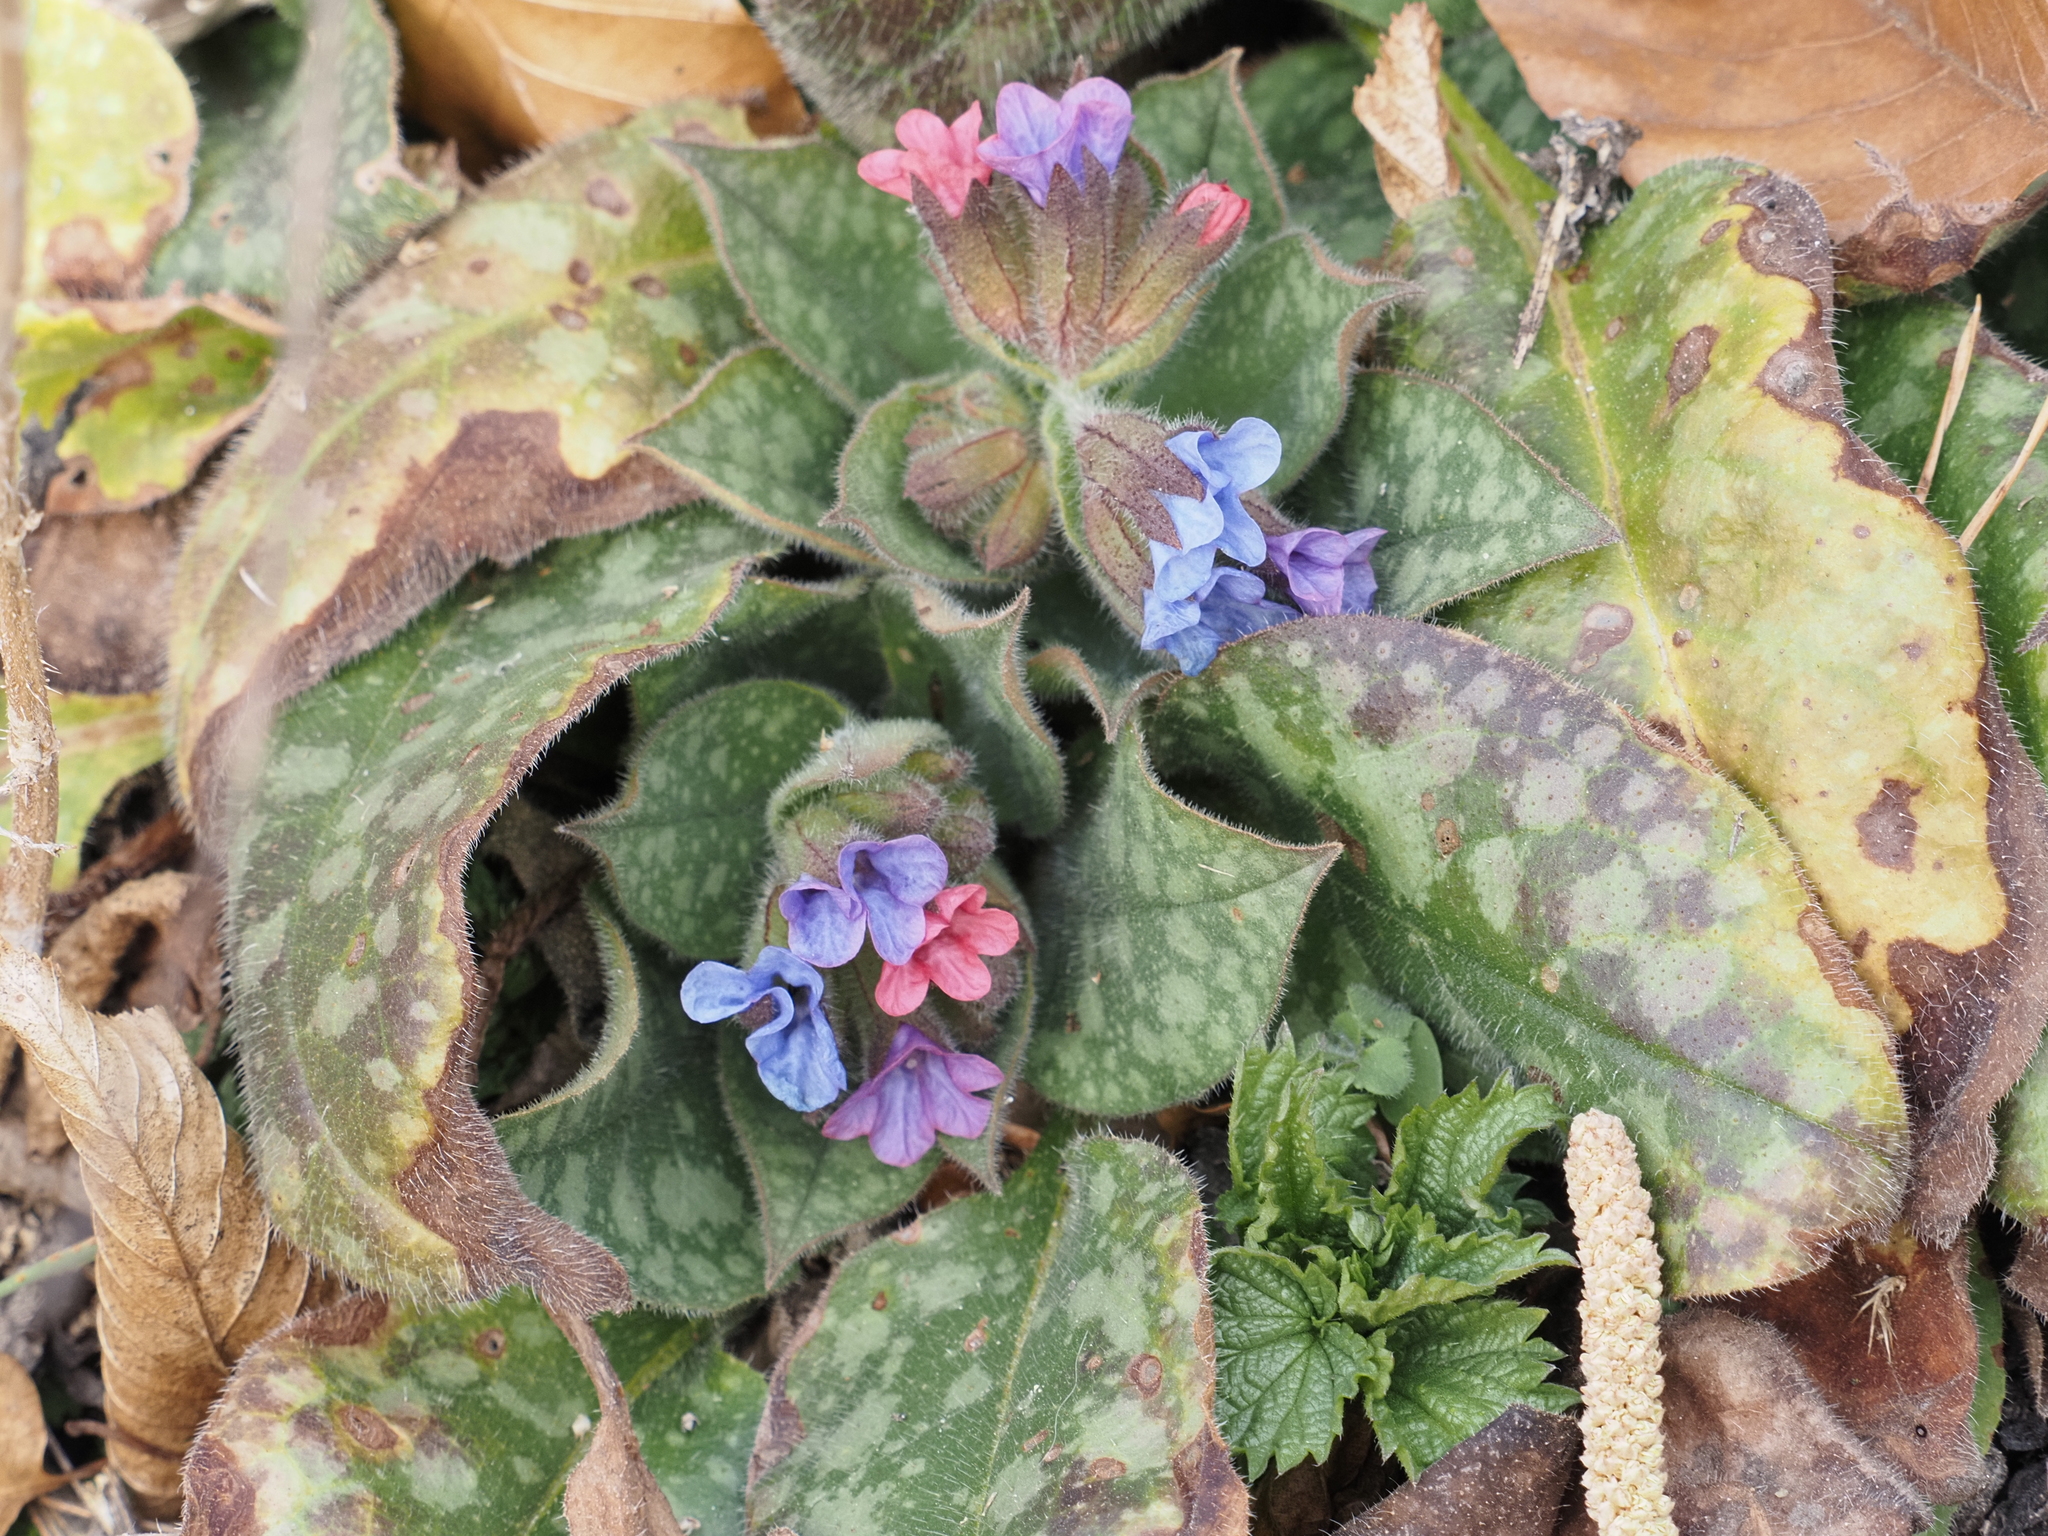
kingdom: Plantae
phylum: Tracheophyta
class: Magnoliopsida
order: Boraginales
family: Boraginaceae
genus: Pulmonaria
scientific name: Pulmonaria officinalis
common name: Lungwort
